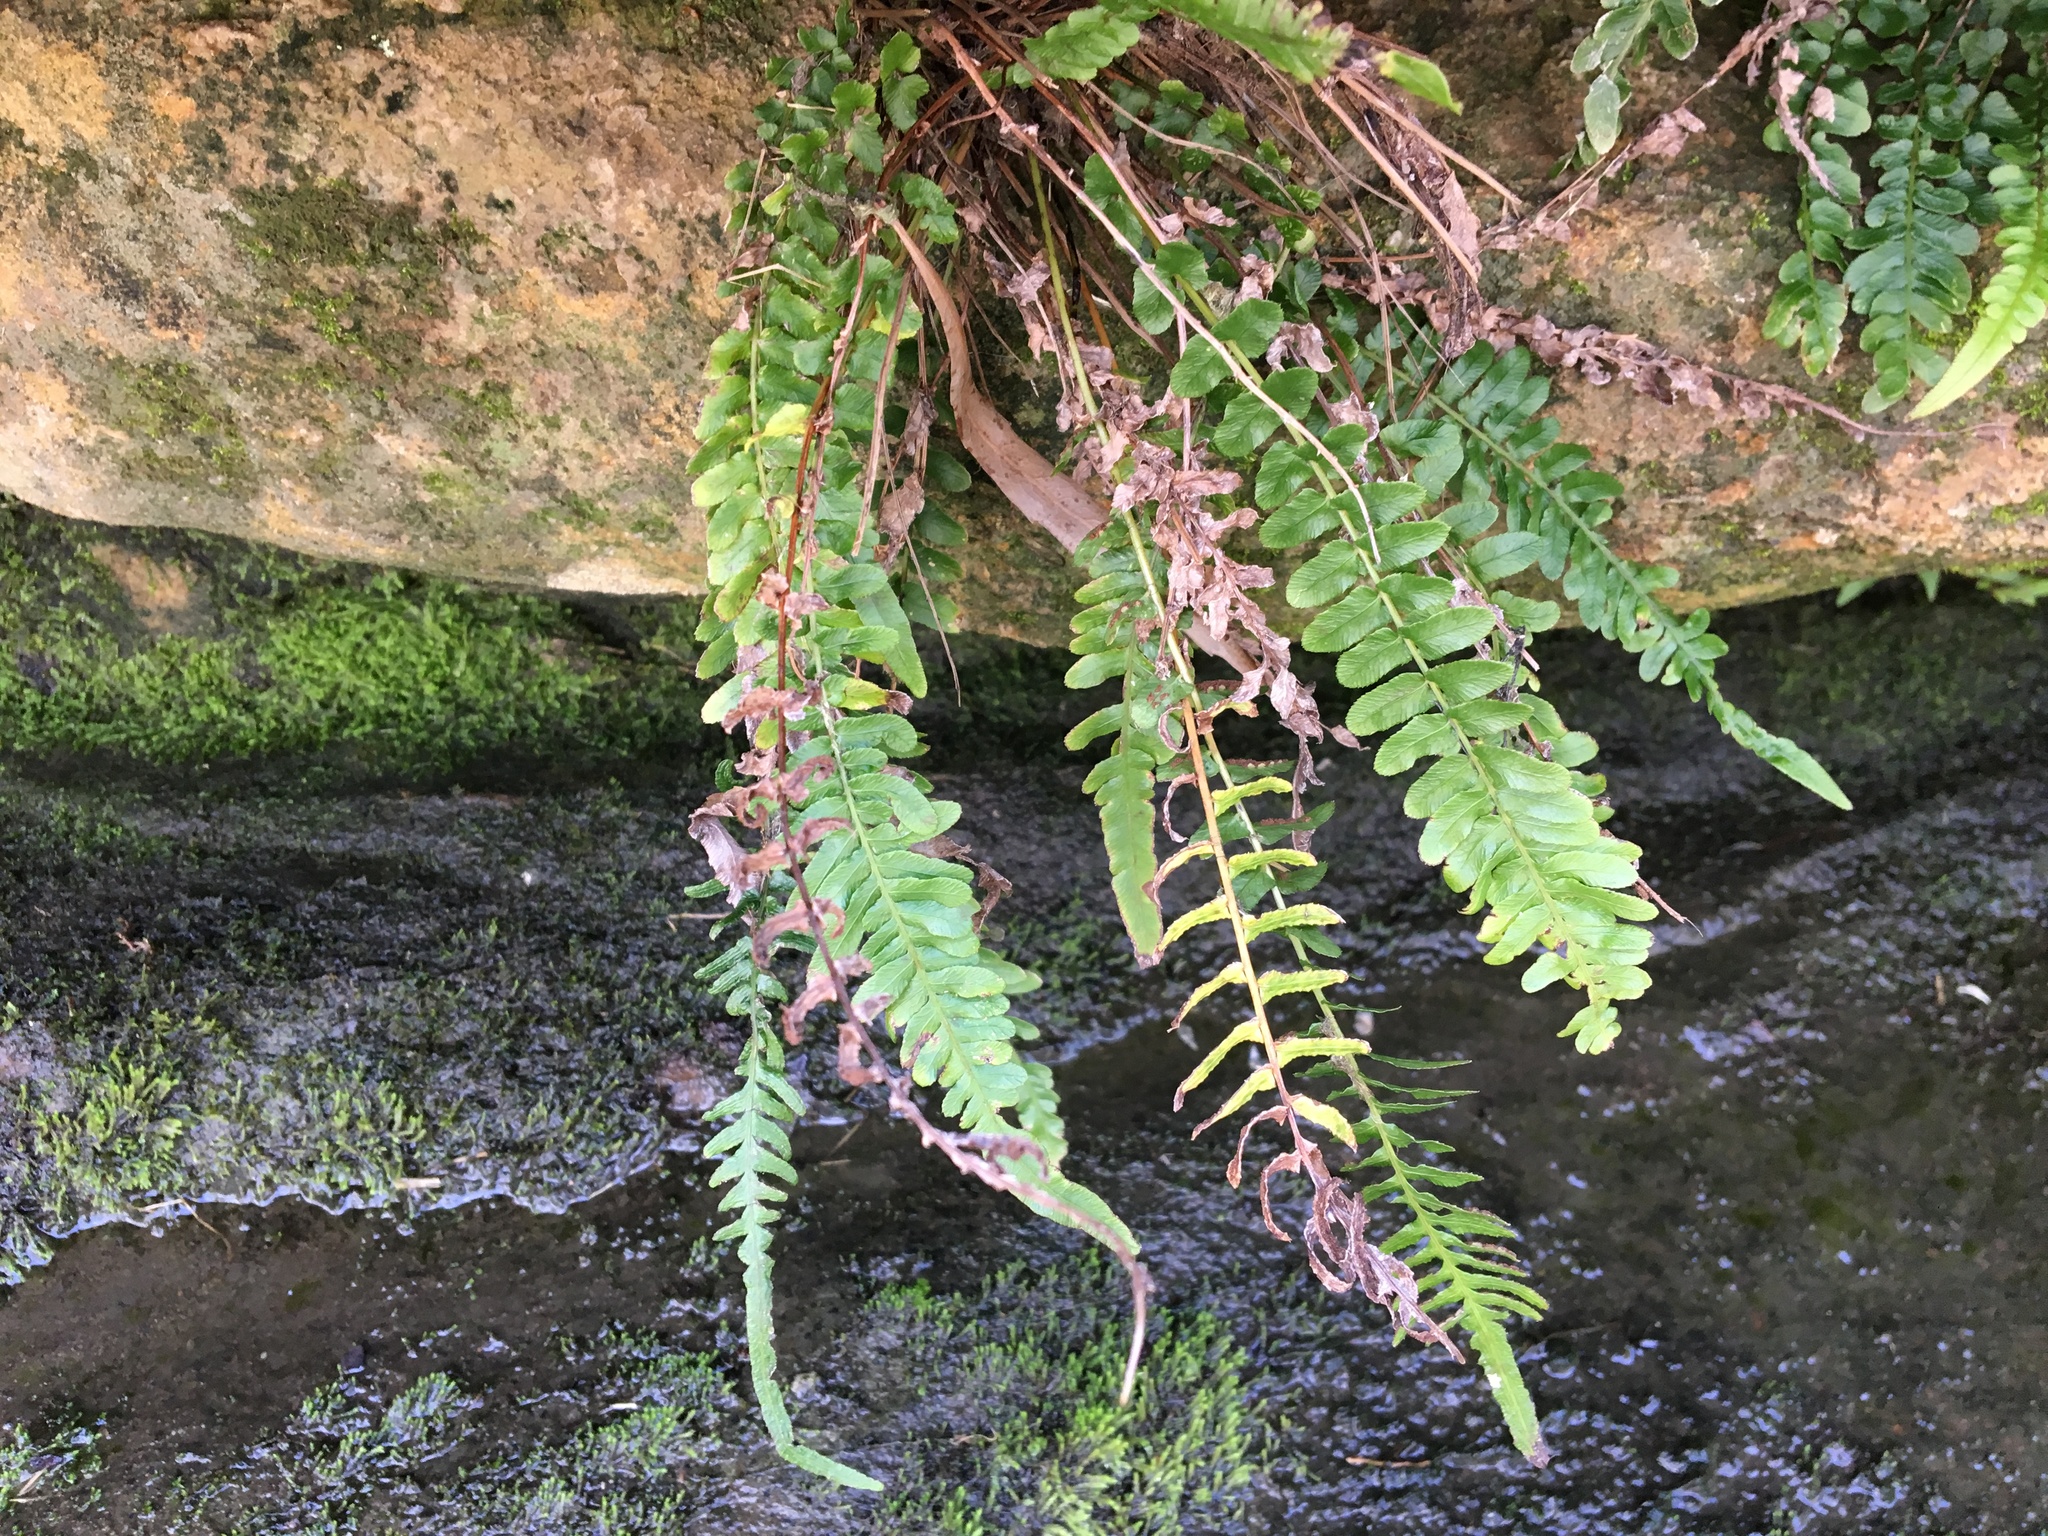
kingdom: Plantae
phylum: Tracheophyta
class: Polypodiopsida
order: Polypodiales
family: Blechnaceae
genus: Doodia
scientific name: Doodia caudata
